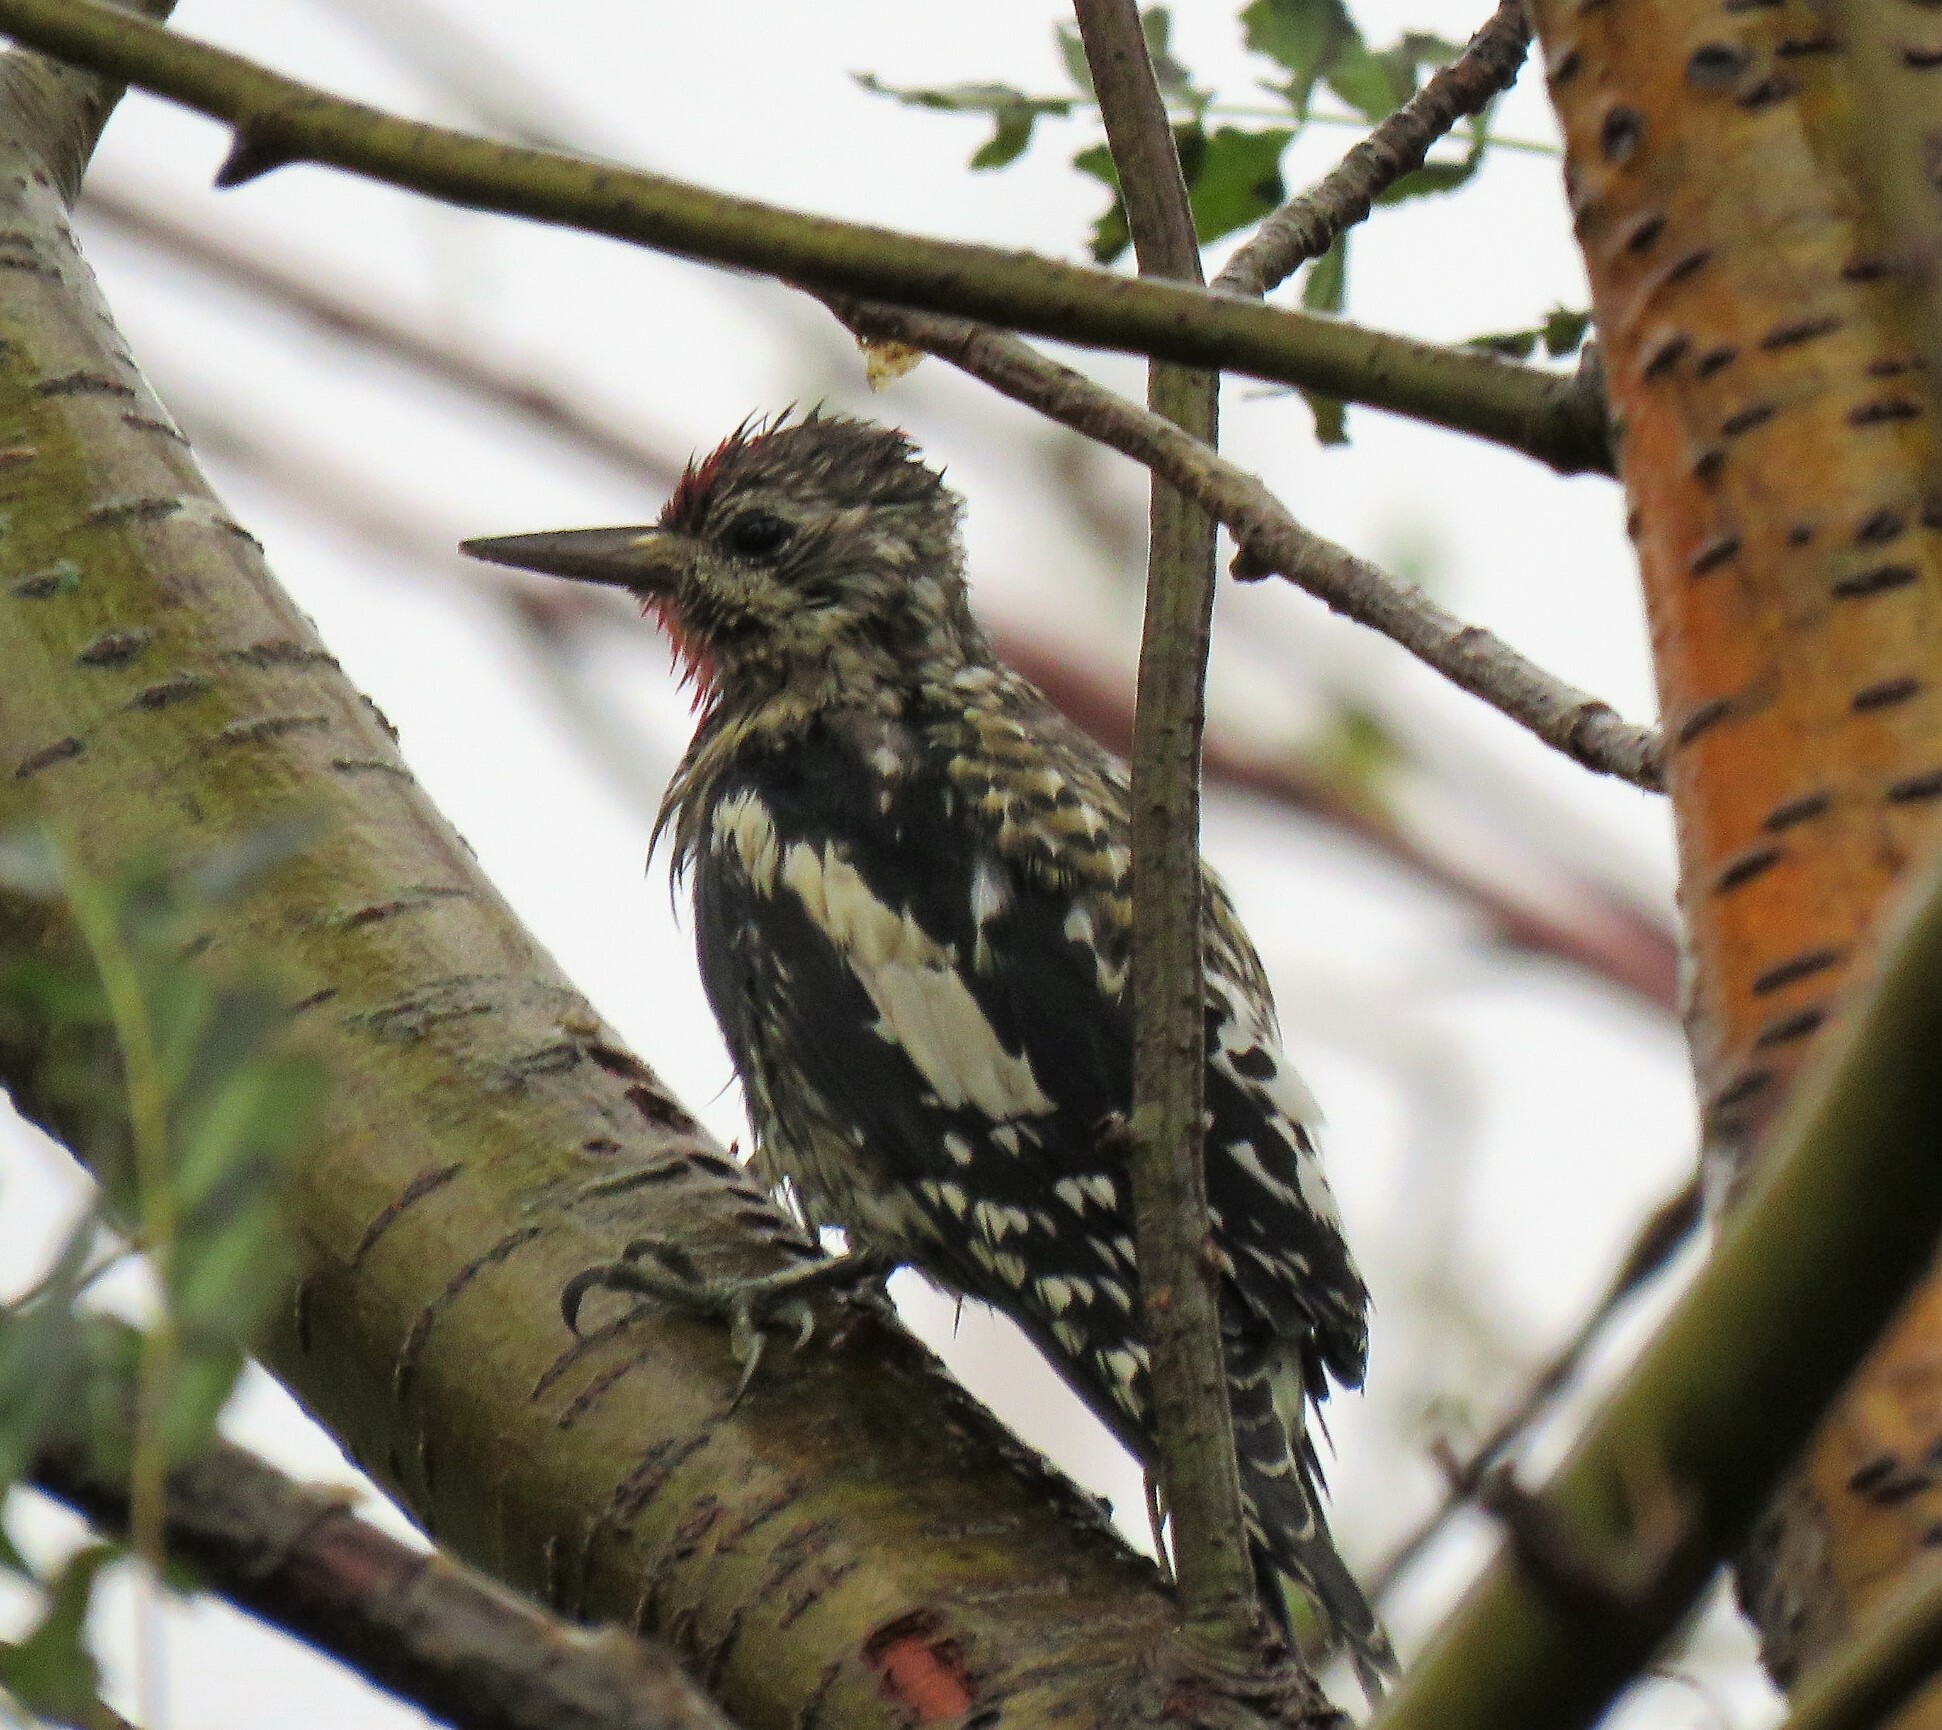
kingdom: Animalia
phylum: Chordata
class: Aves
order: Piciformes
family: Picidae
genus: Sphyrapicus
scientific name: Sphyrapicus varius
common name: Yellow-bellied sapsucker
